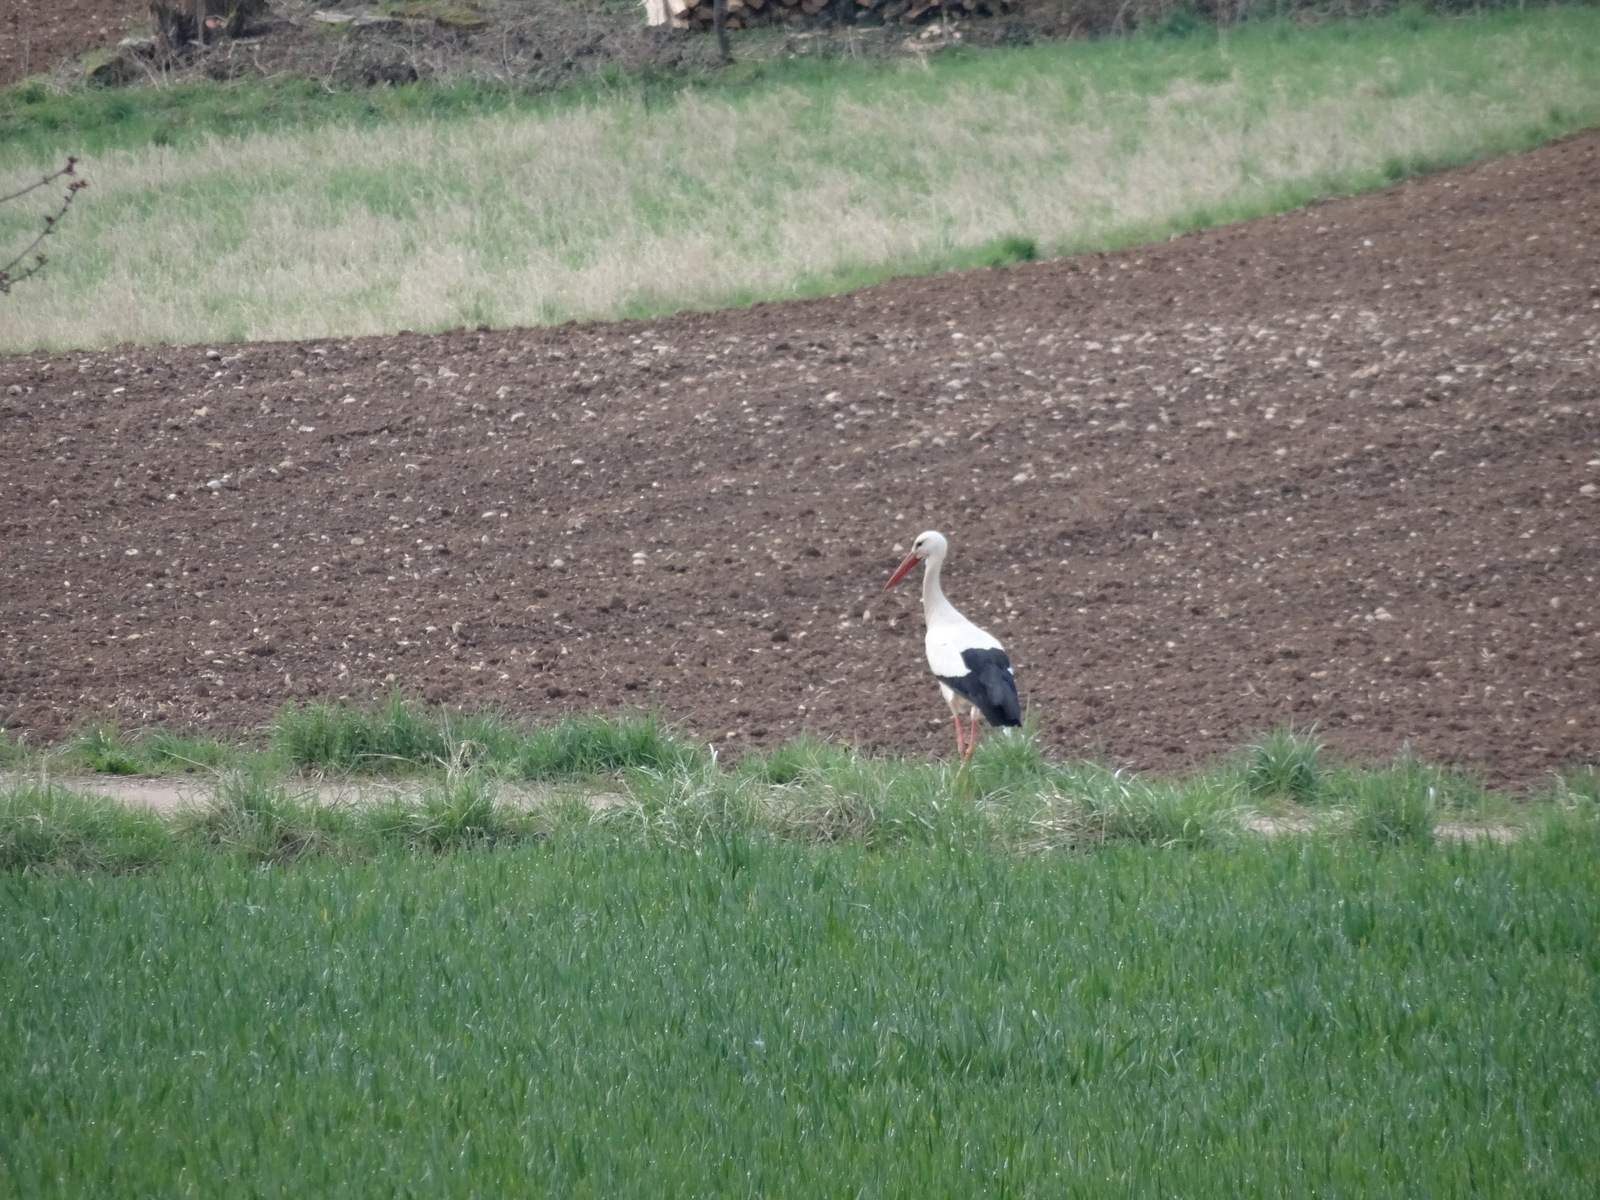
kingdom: Animalia
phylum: Chordata
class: Aves
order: Ciconiiformes
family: Ciconiidae
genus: Ciconia
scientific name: Ciconia ciconia
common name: White stork
